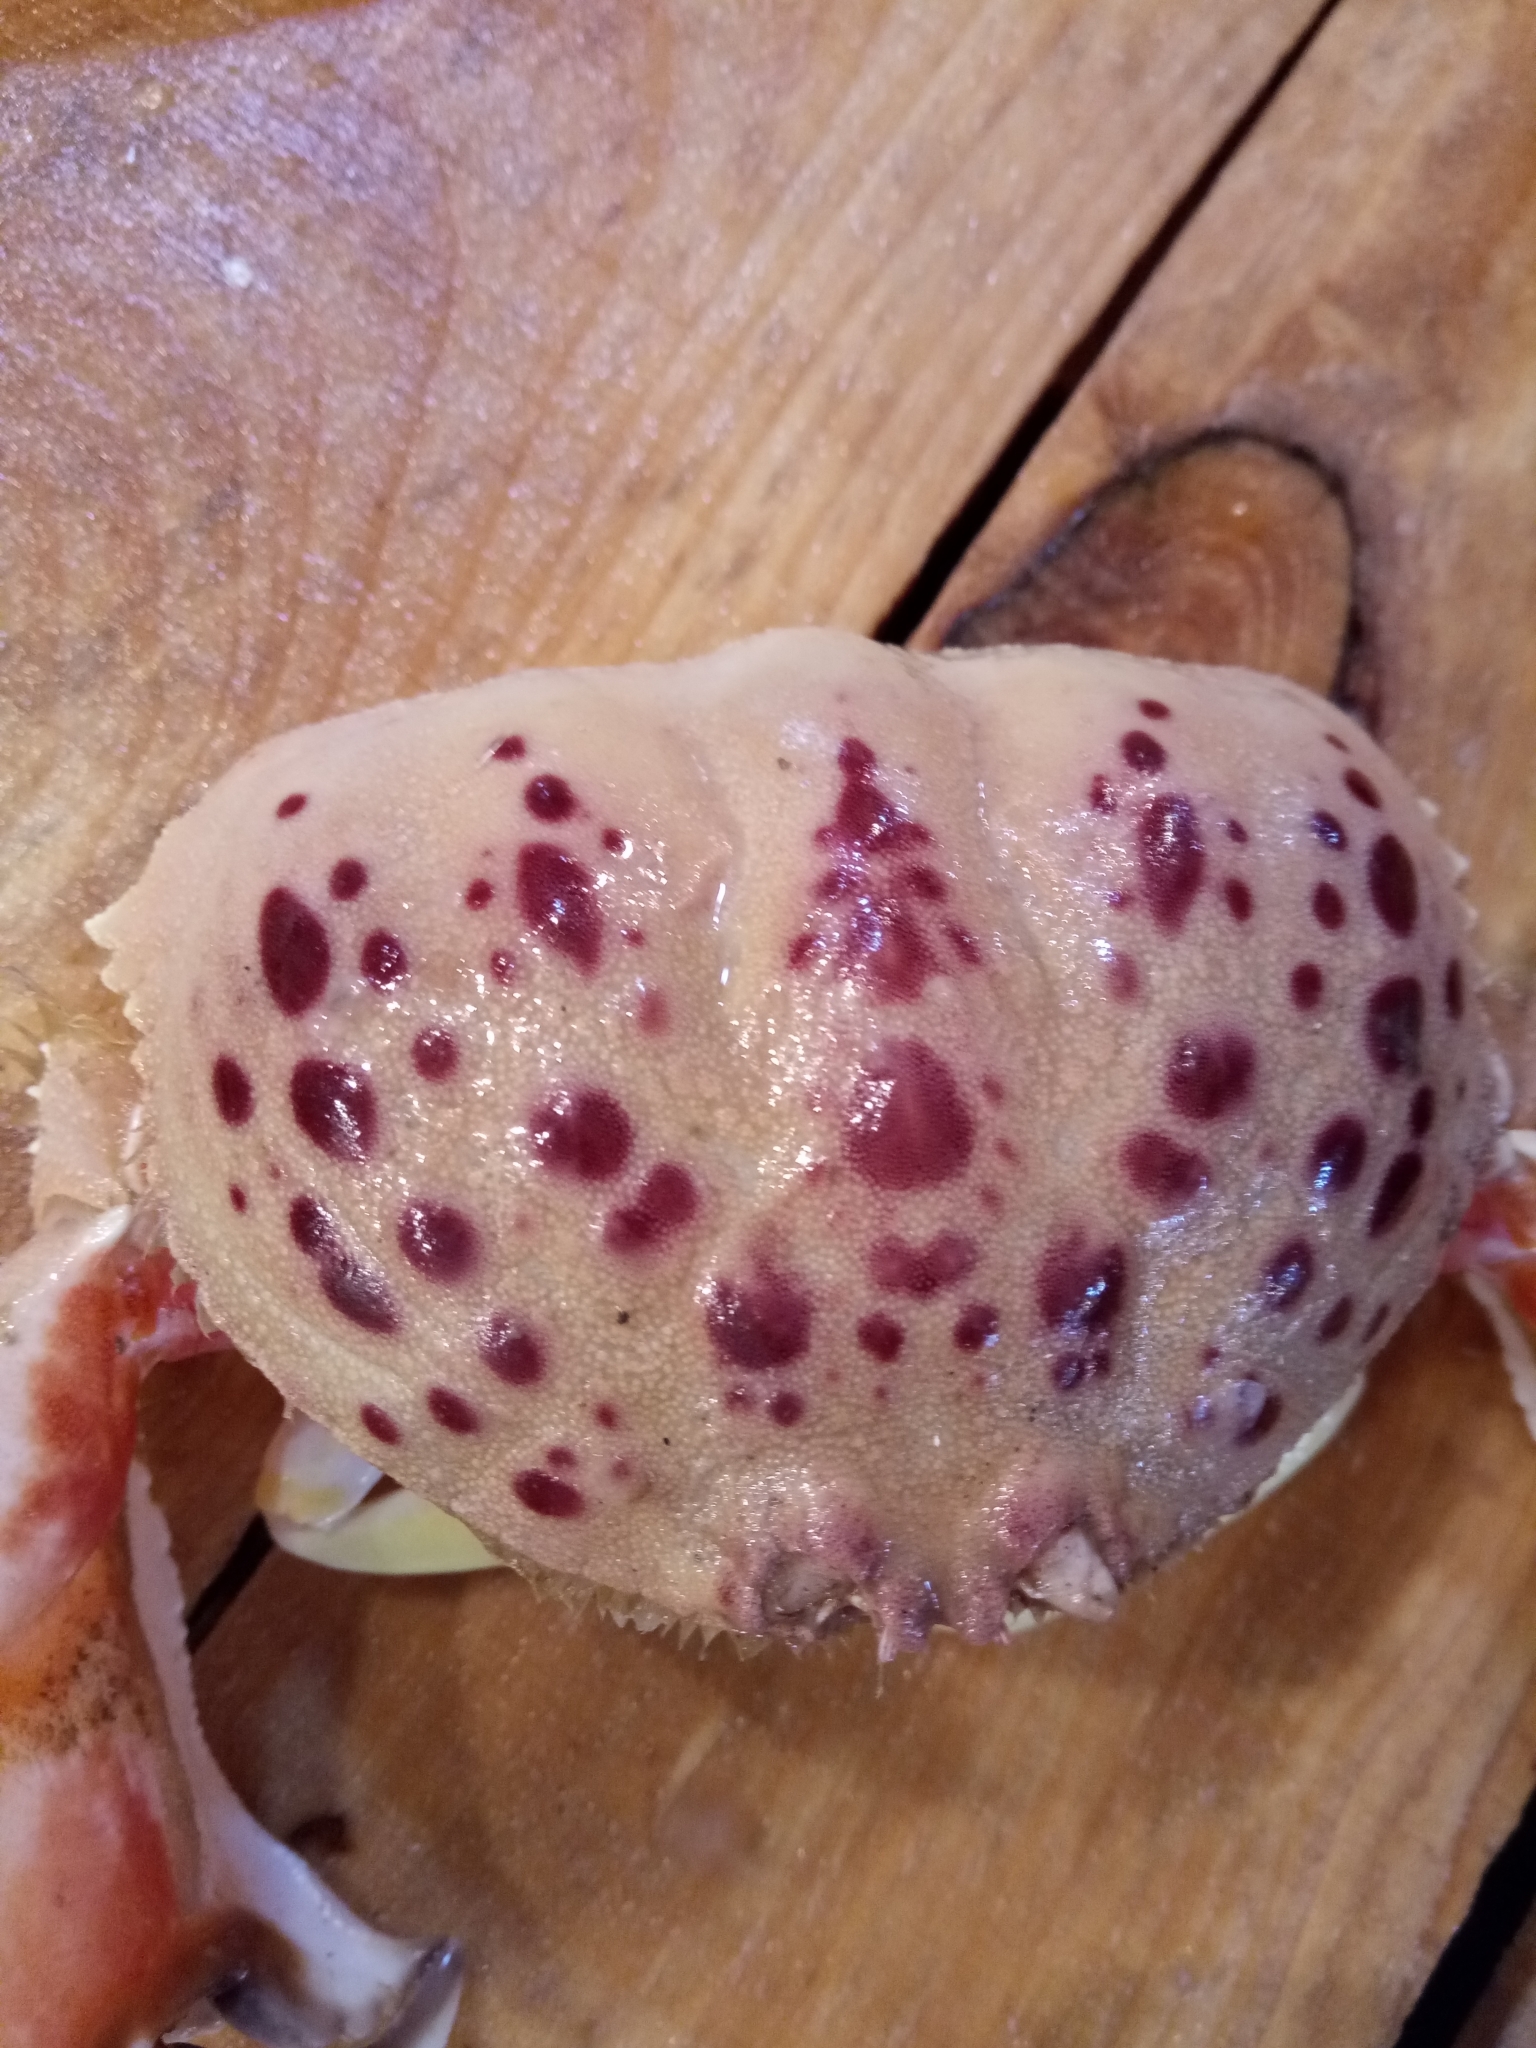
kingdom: Animalia
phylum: Arthropoda
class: Malacostraca
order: Decapoda
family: Calappidae
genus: Calappa
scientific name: Calappa granulata
